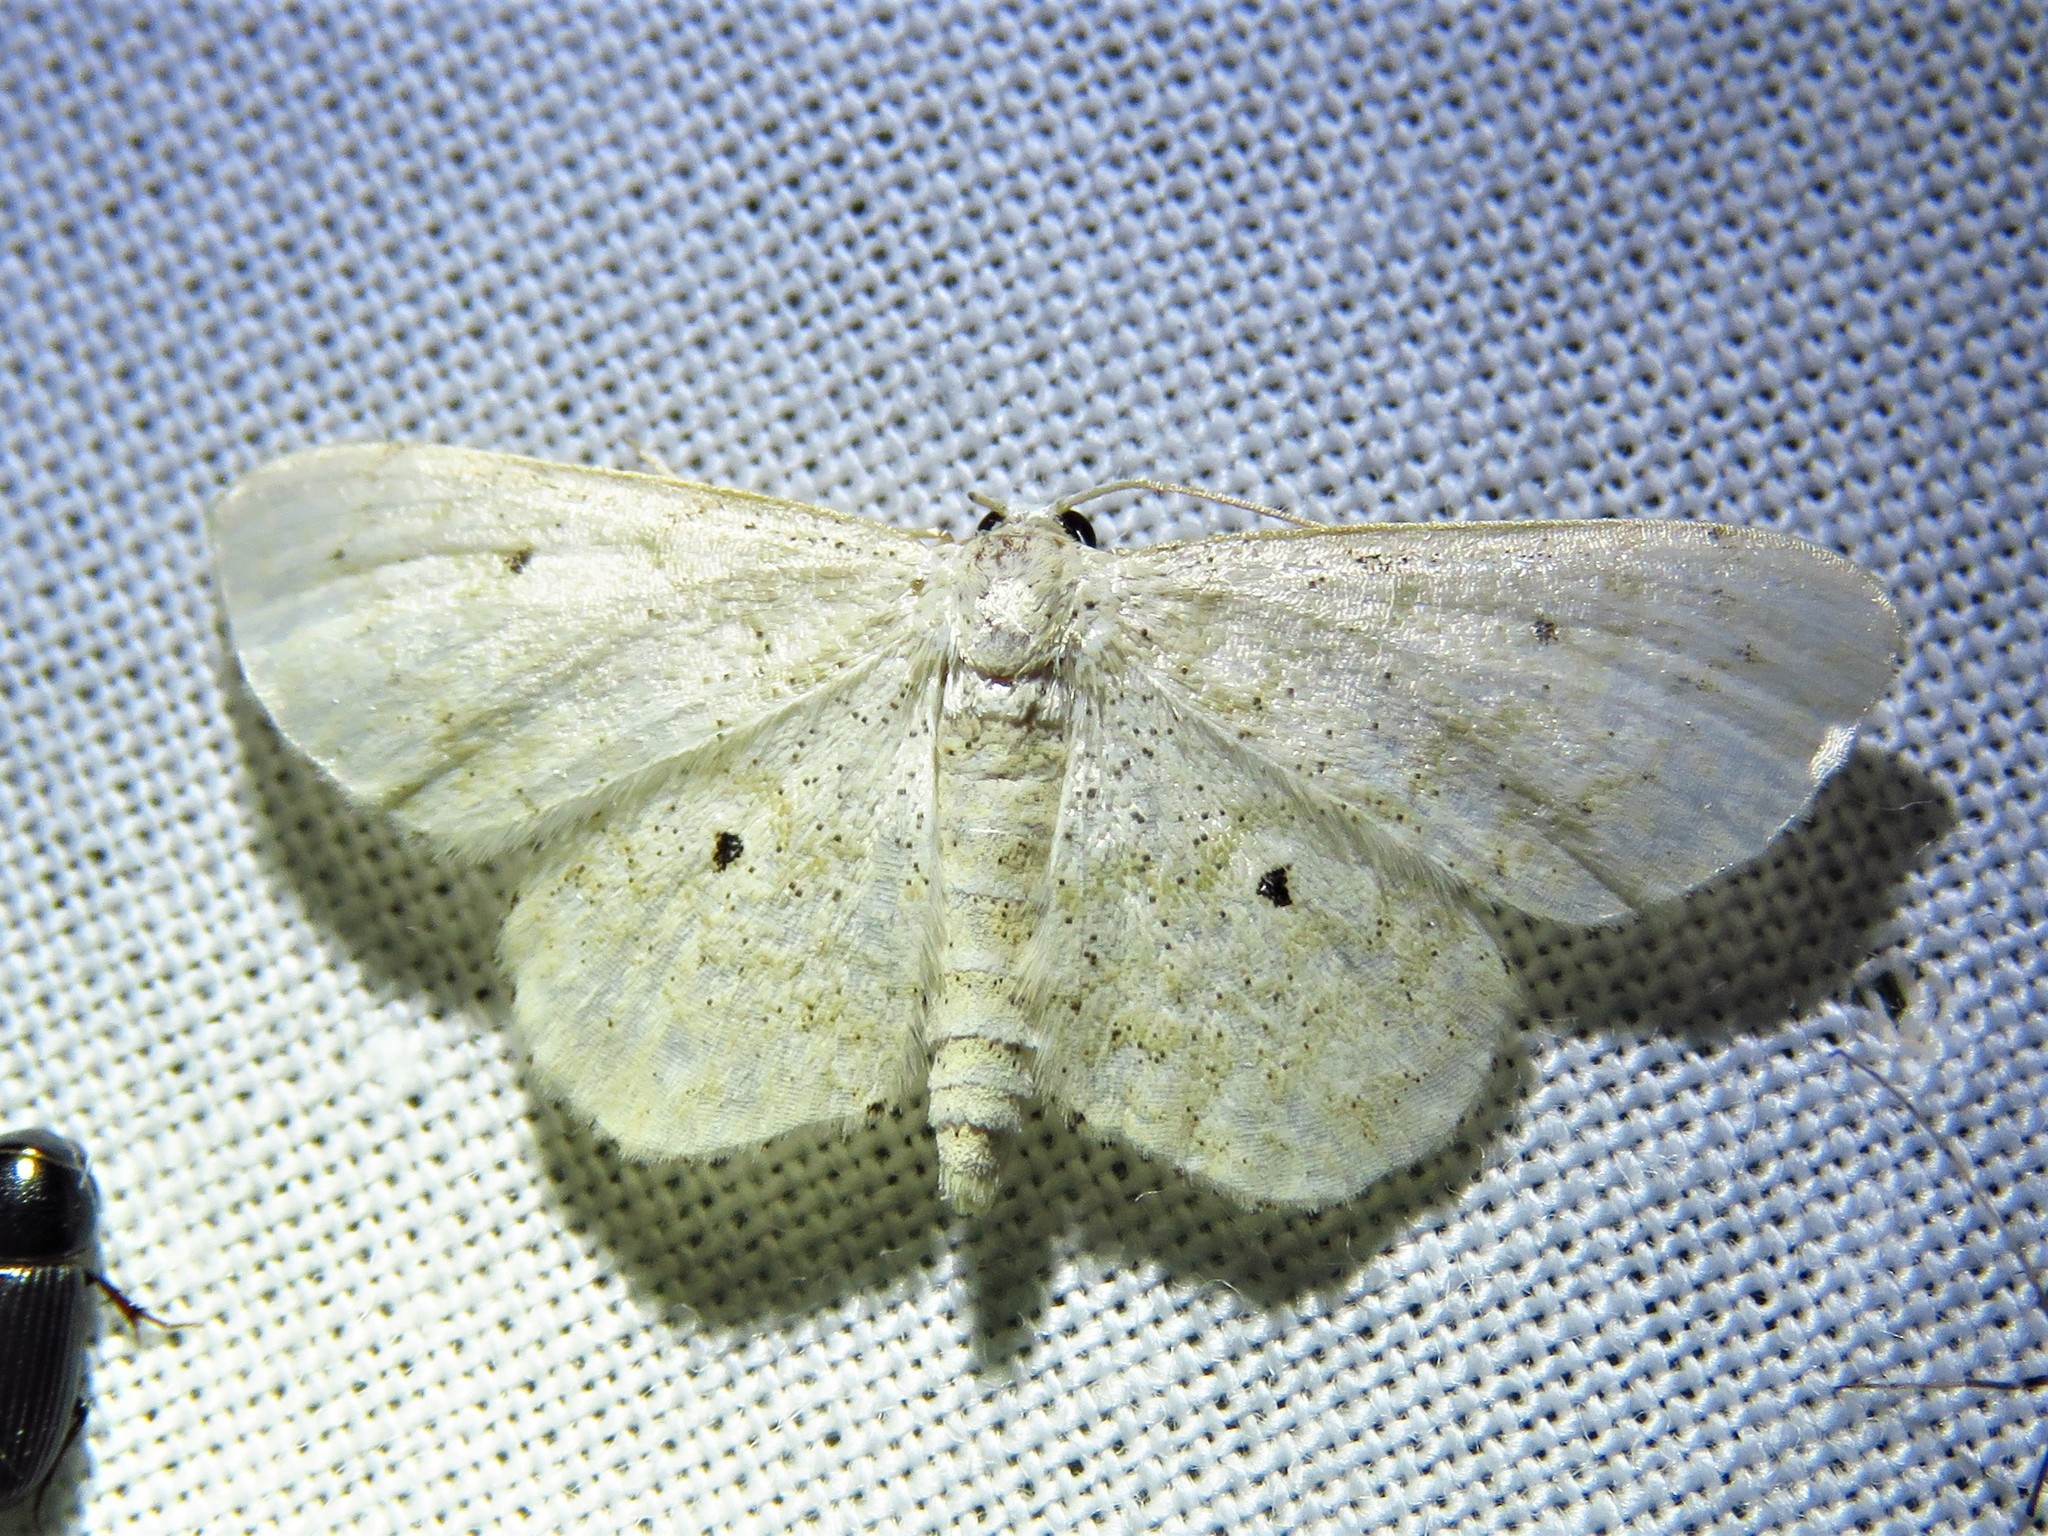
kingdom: Animalia
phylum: Arthropoda
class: Insecta
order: Lepidoptera
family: Geometridae
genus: Lobocleta
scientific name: Lobocleta peralbata
